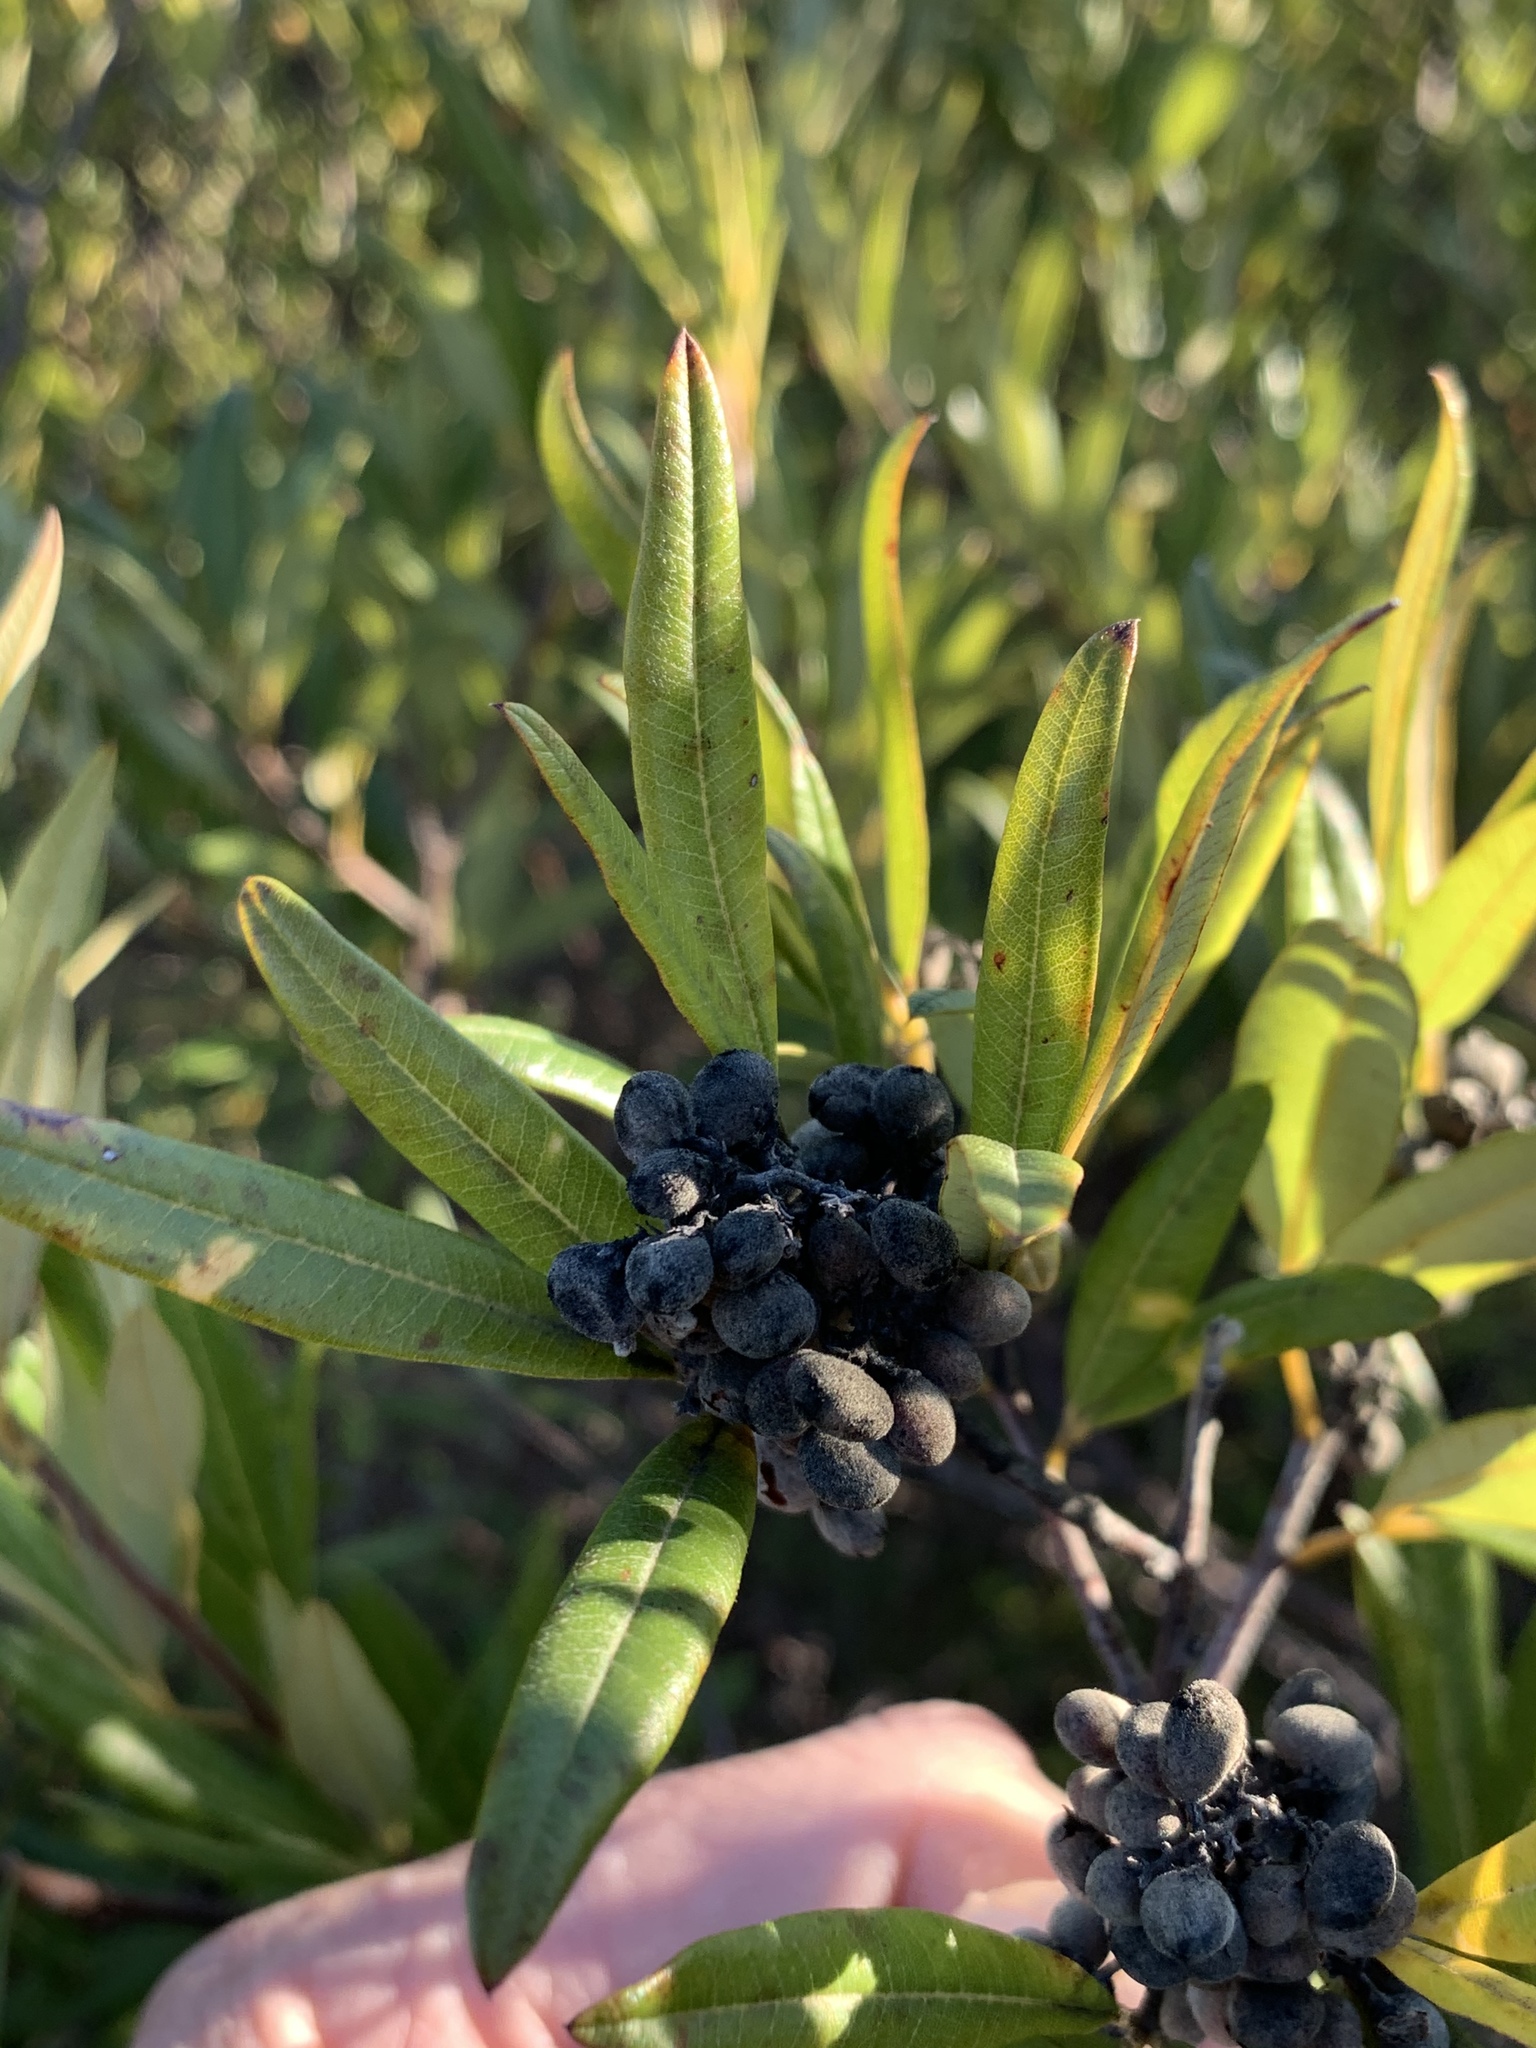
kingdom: Plantae
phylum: Tracheophyta
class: Magnoliopsida
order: Sapindales
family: Anacardiaceae
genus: Searsia
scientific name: Searsia angustifolia
